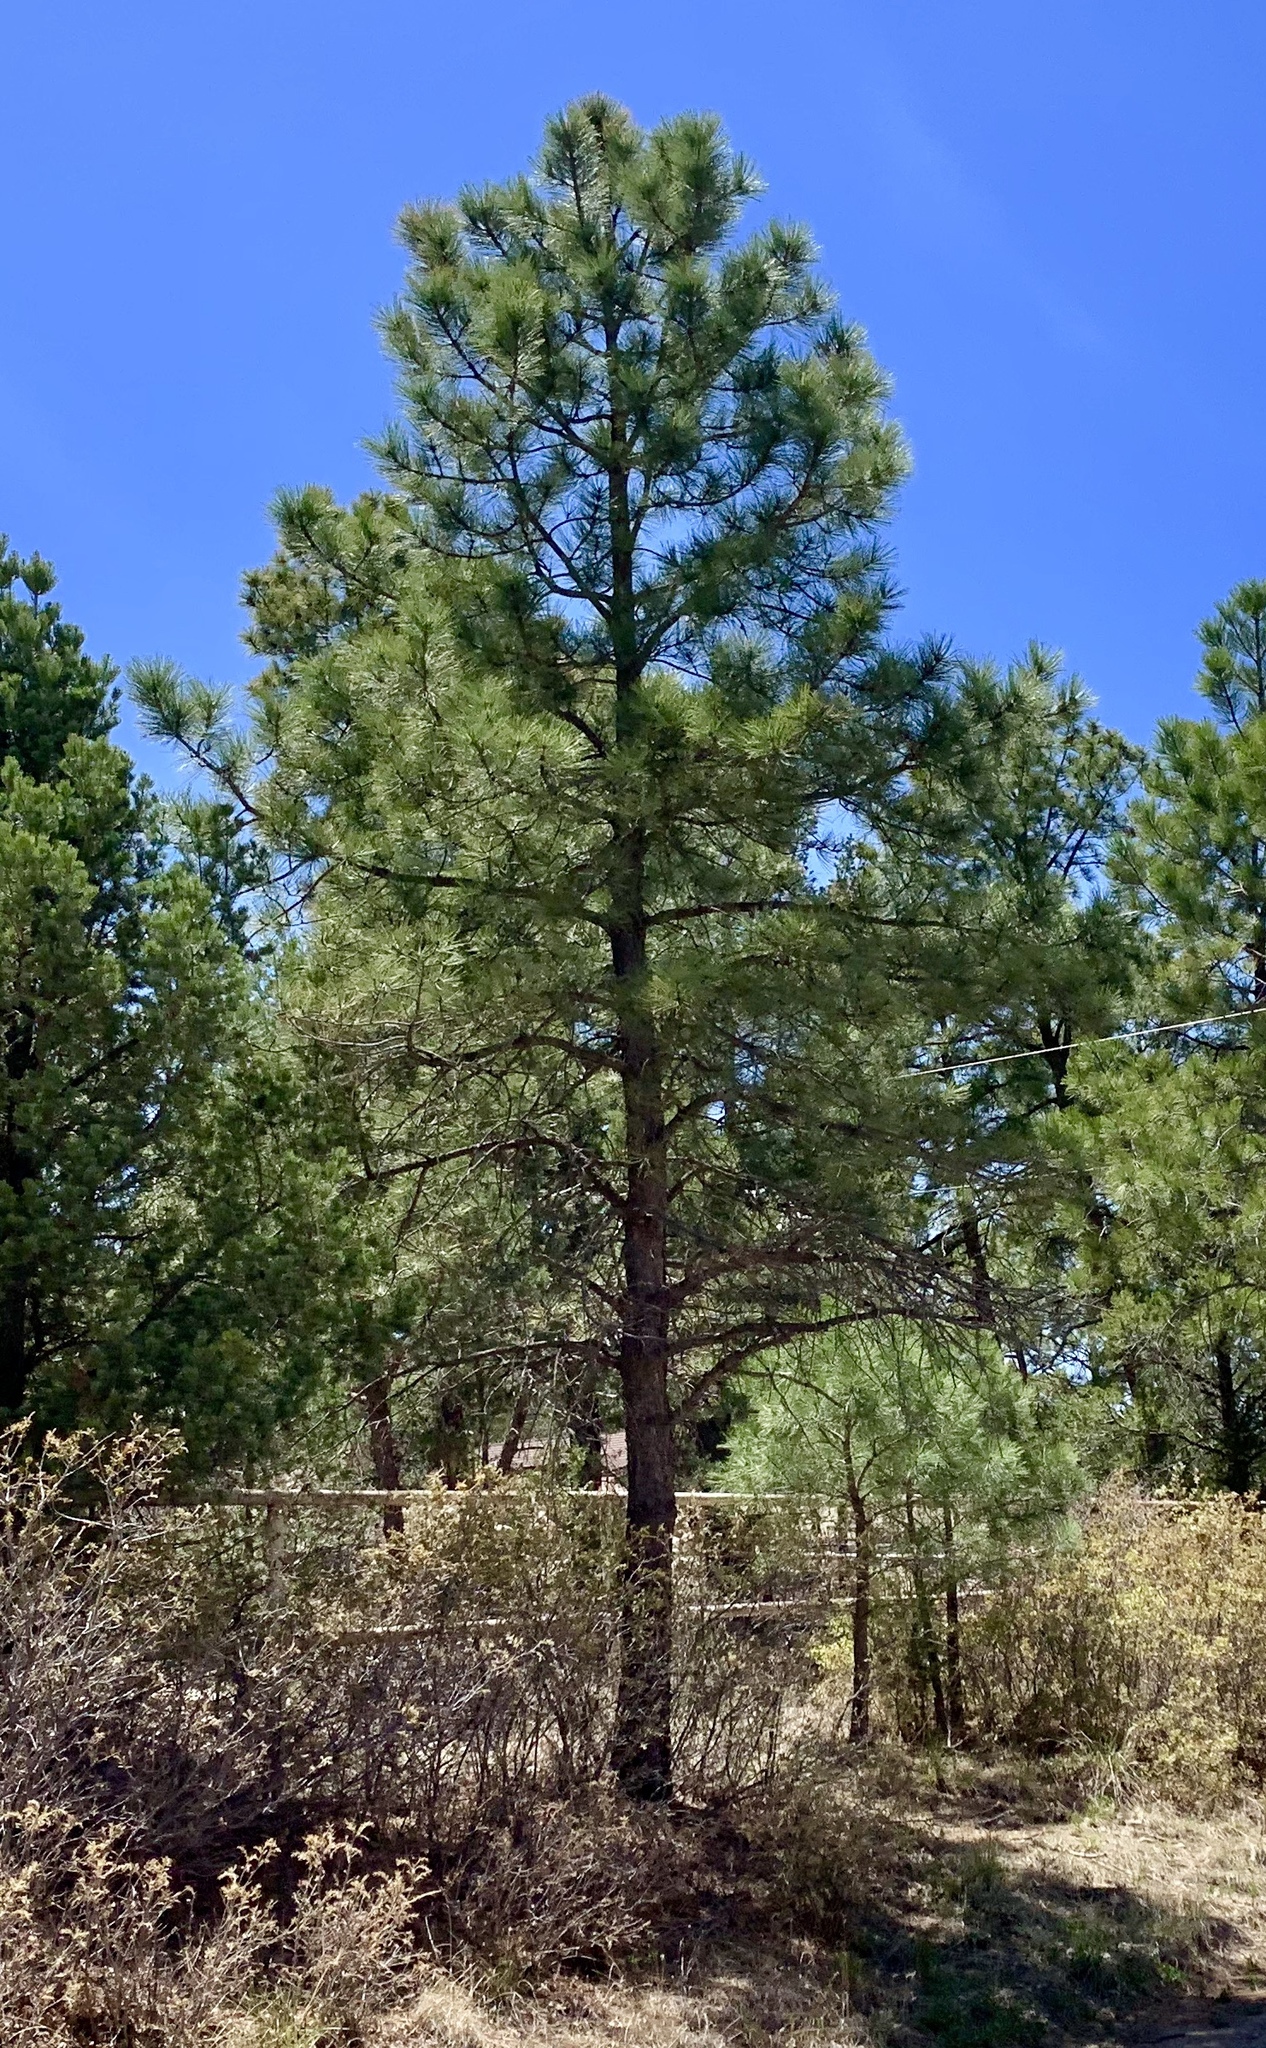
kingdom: Plantae
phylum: Tracheophyta
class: Pinopsida
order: Pinales
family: Pinaceae
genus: Pinus
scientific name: Pinus ponderosa
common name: Western yellow-pine
